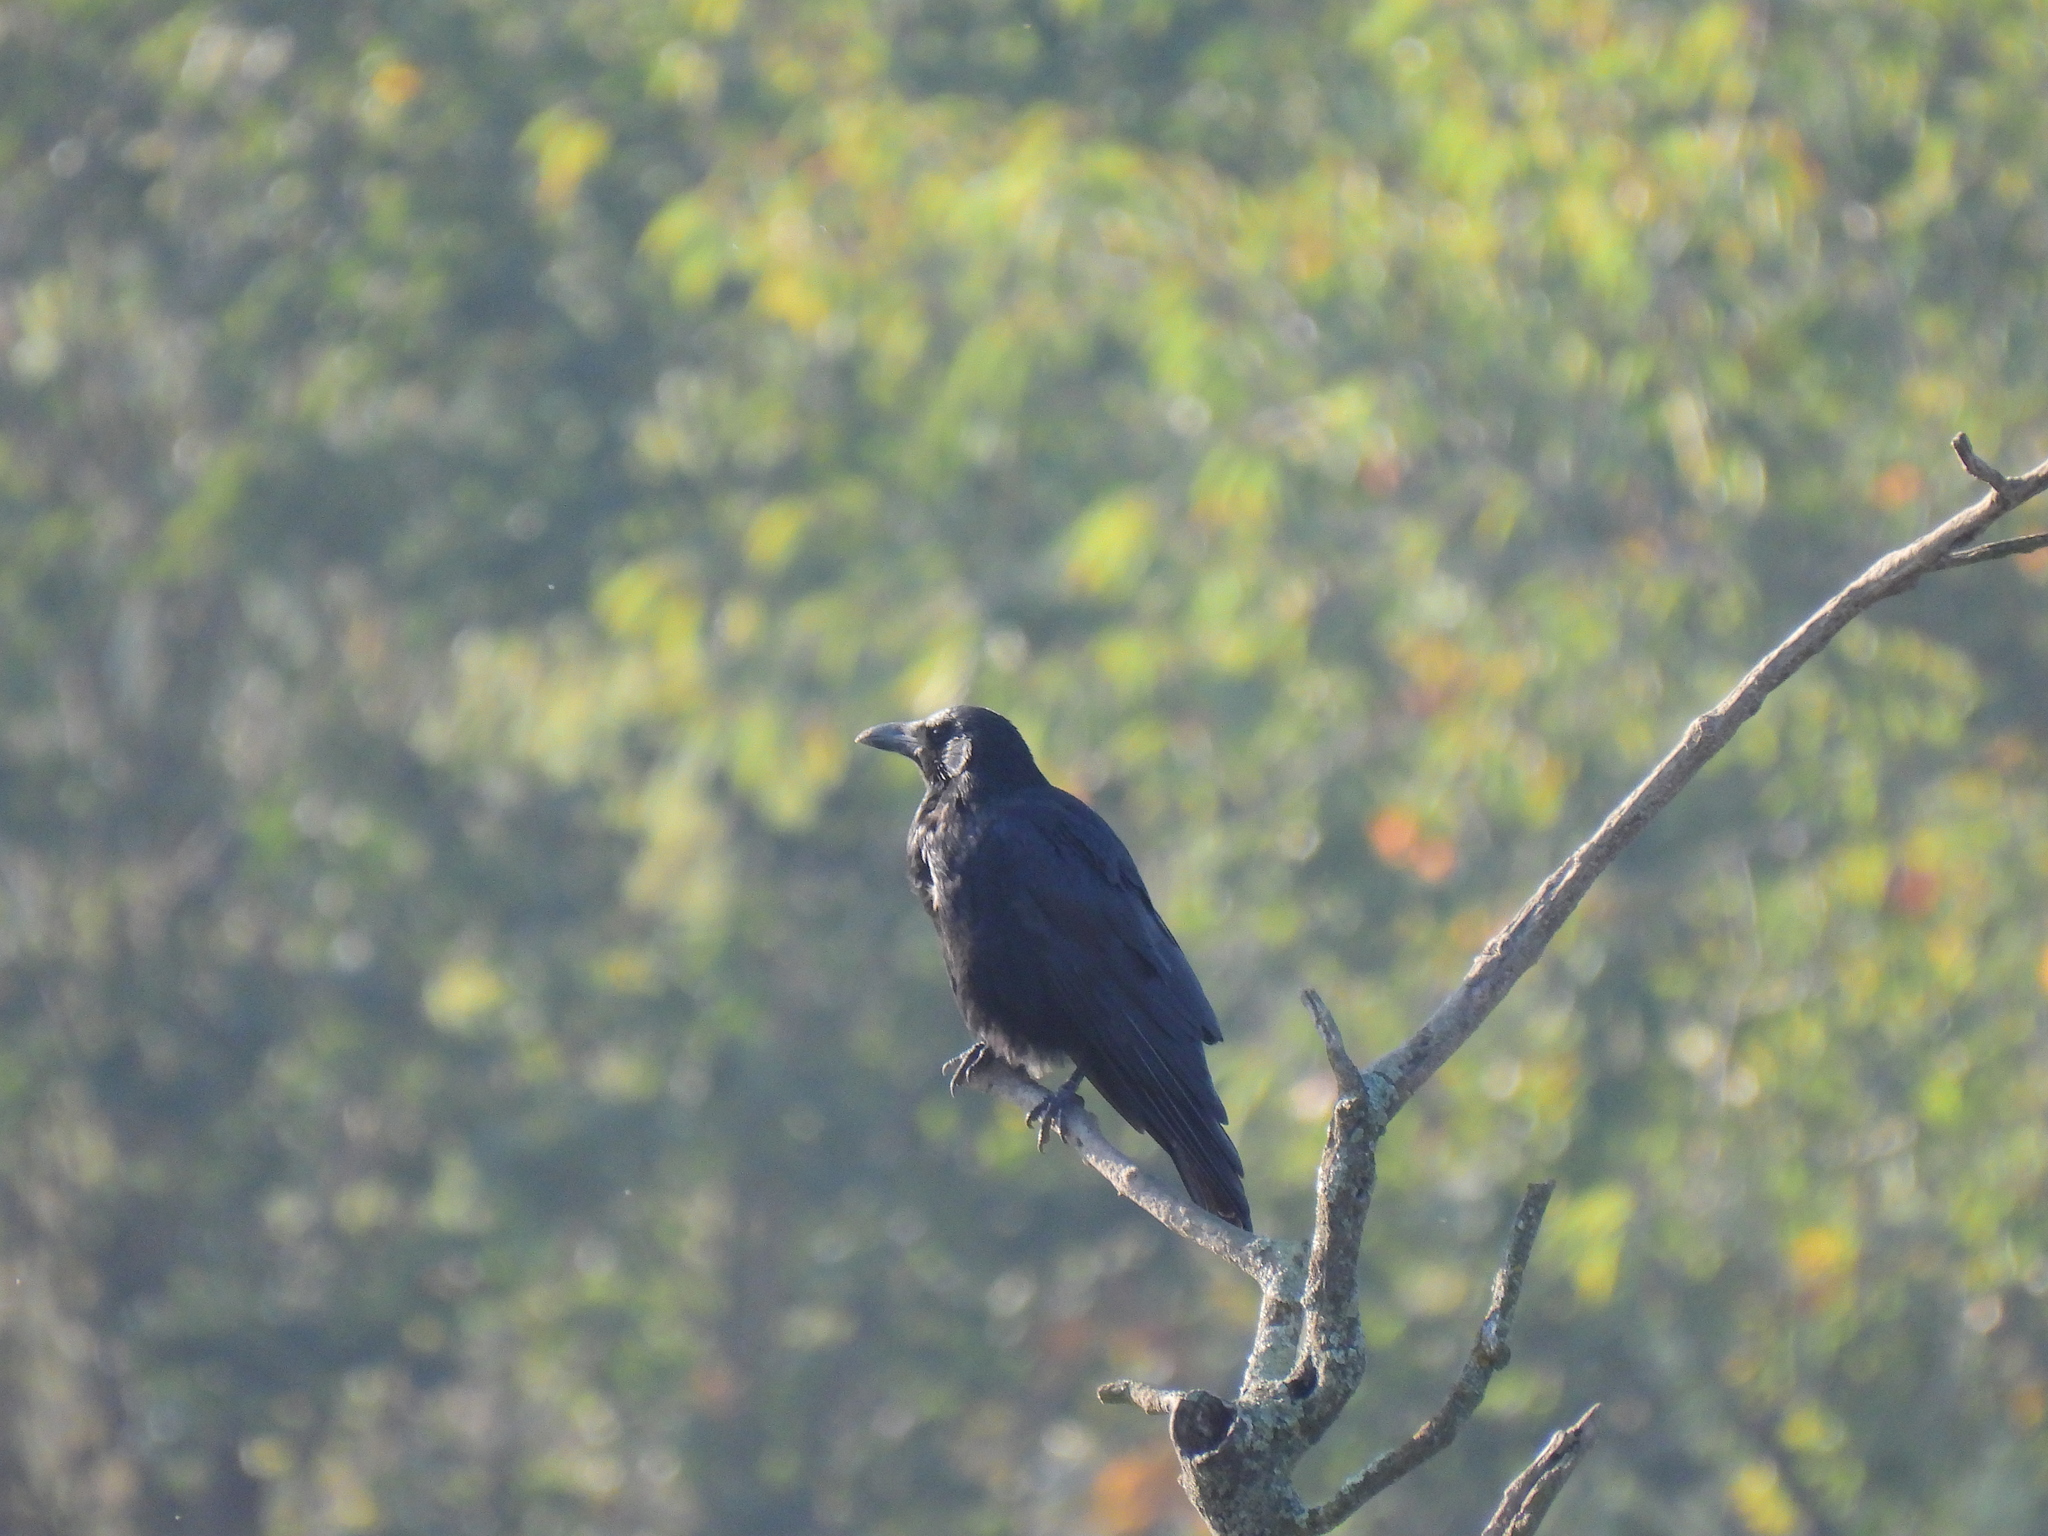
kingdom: Animalia
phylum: Chordata
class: Aves
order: Passeriformes
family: Corvidae
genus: Corvus
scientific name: Corvus corone
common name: Carrion crow
